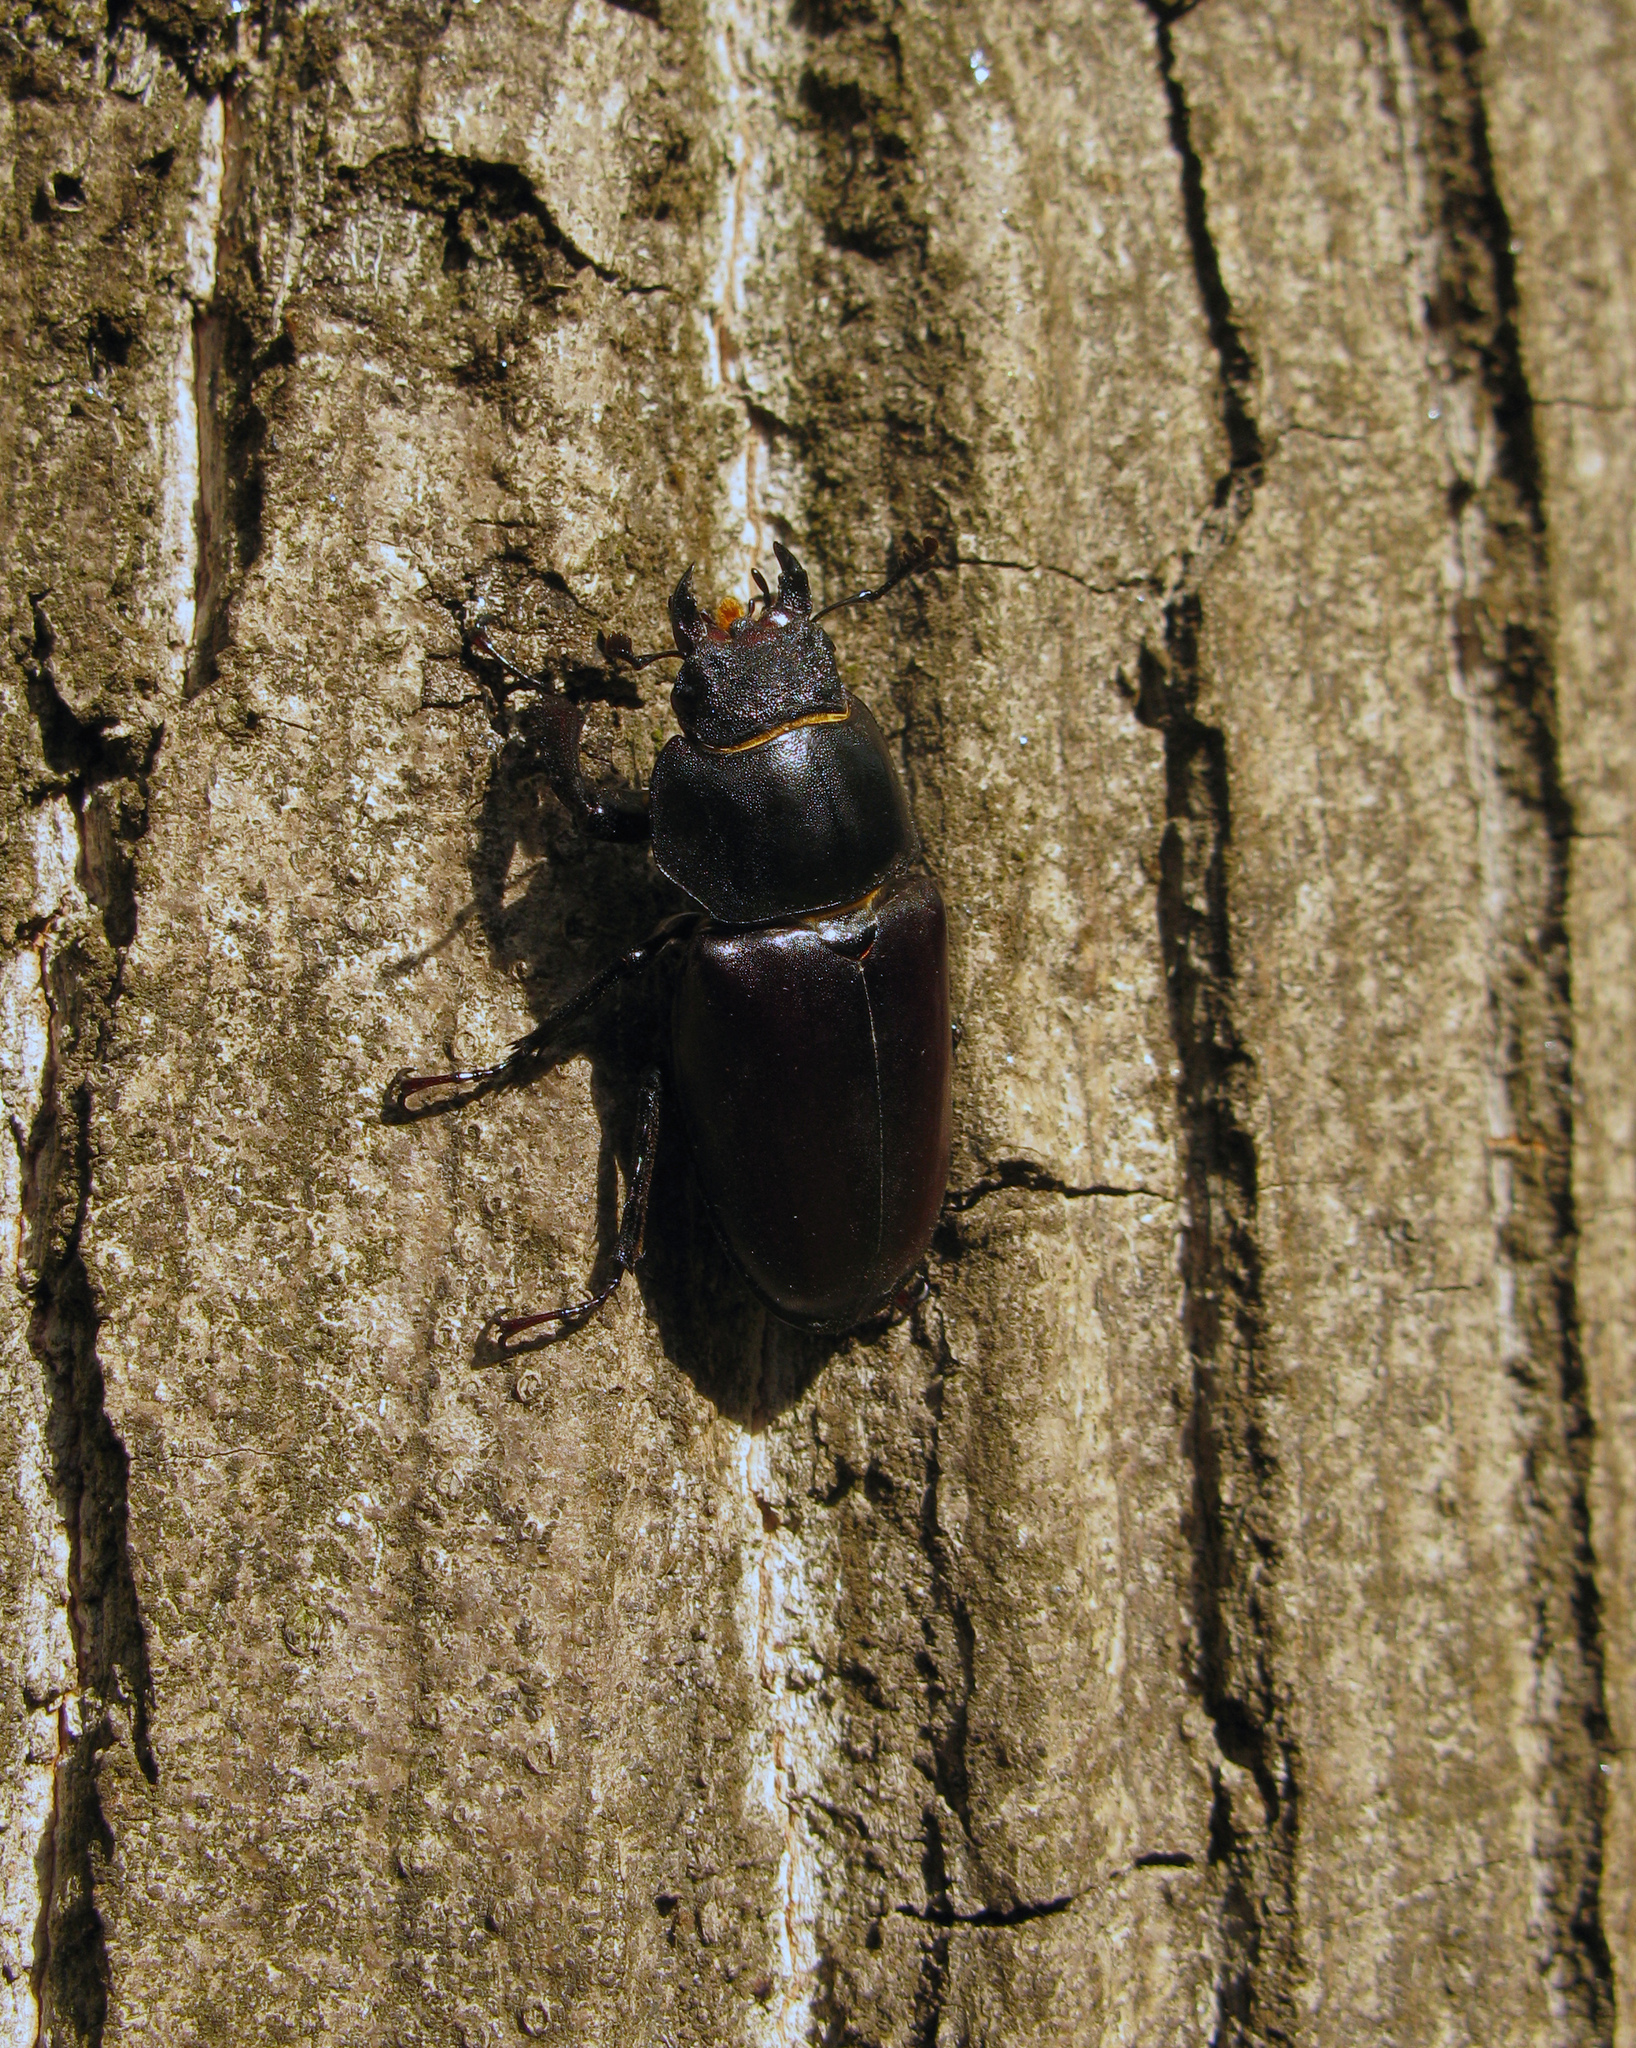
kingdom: Animalia
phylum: Arthropoda
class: Insecta
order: Coleoptera
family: Lucanidae
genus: Lucanus
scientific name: Lucanus cervus
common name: Stag beetle
